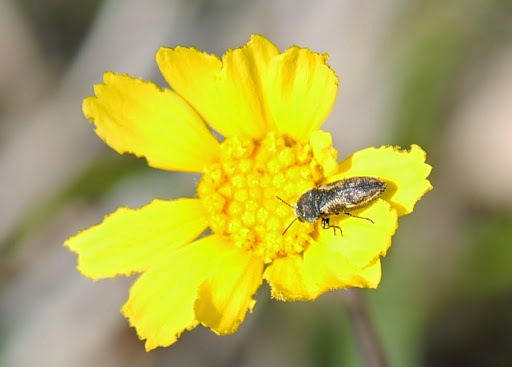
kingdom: Animalia
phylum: Arthropoda
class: Insecta
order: Coleoptera
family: Buprestidae
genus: Acmaeodera
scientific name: Acmaeodera neglecta
